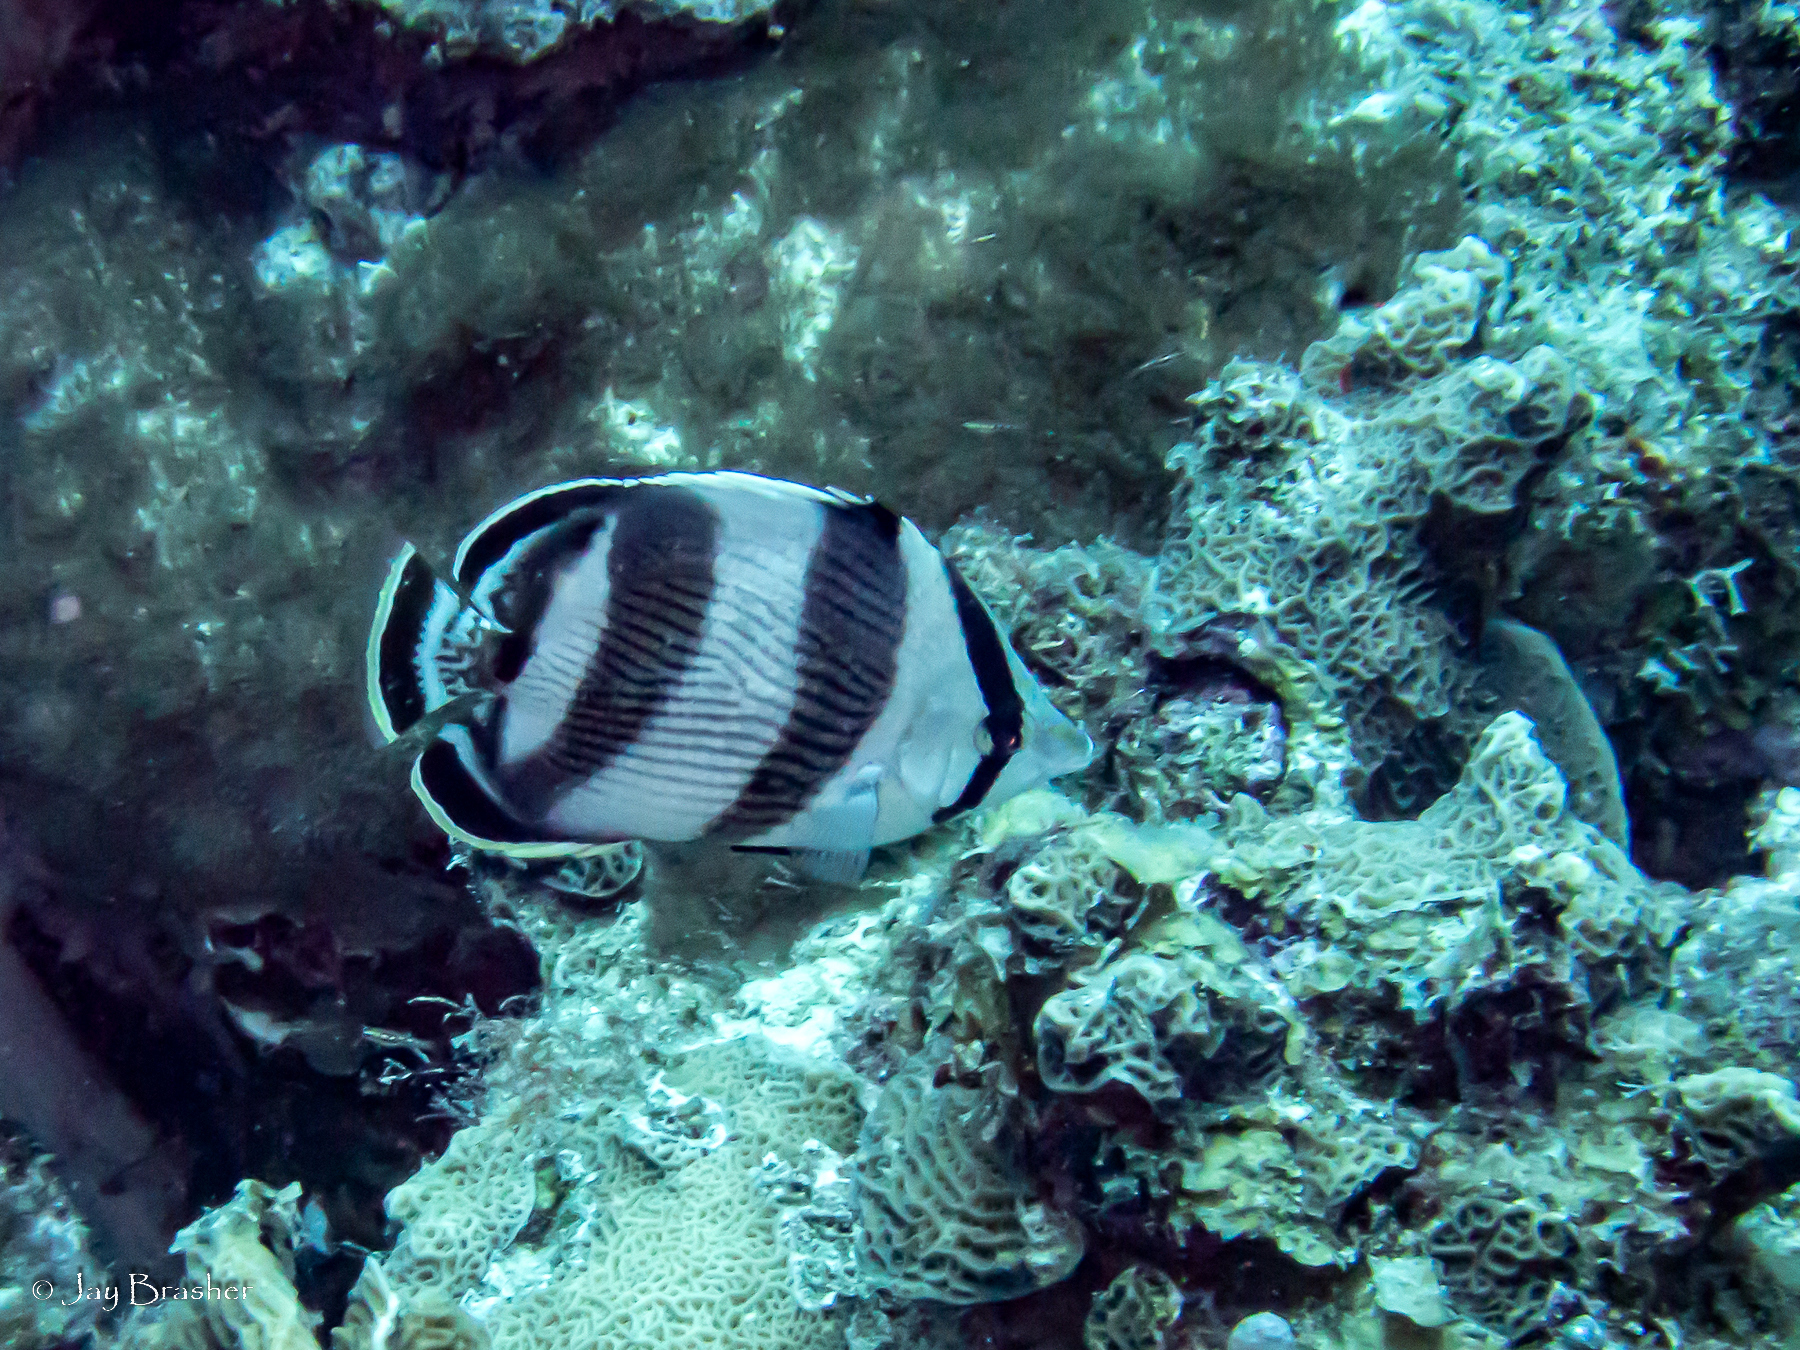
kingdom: Animalia
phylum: Chordata
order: Perciformes
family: Chaetodontidae
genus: Chaetodon
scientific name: Chaetodon striatus
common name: Banded butterflyfish
